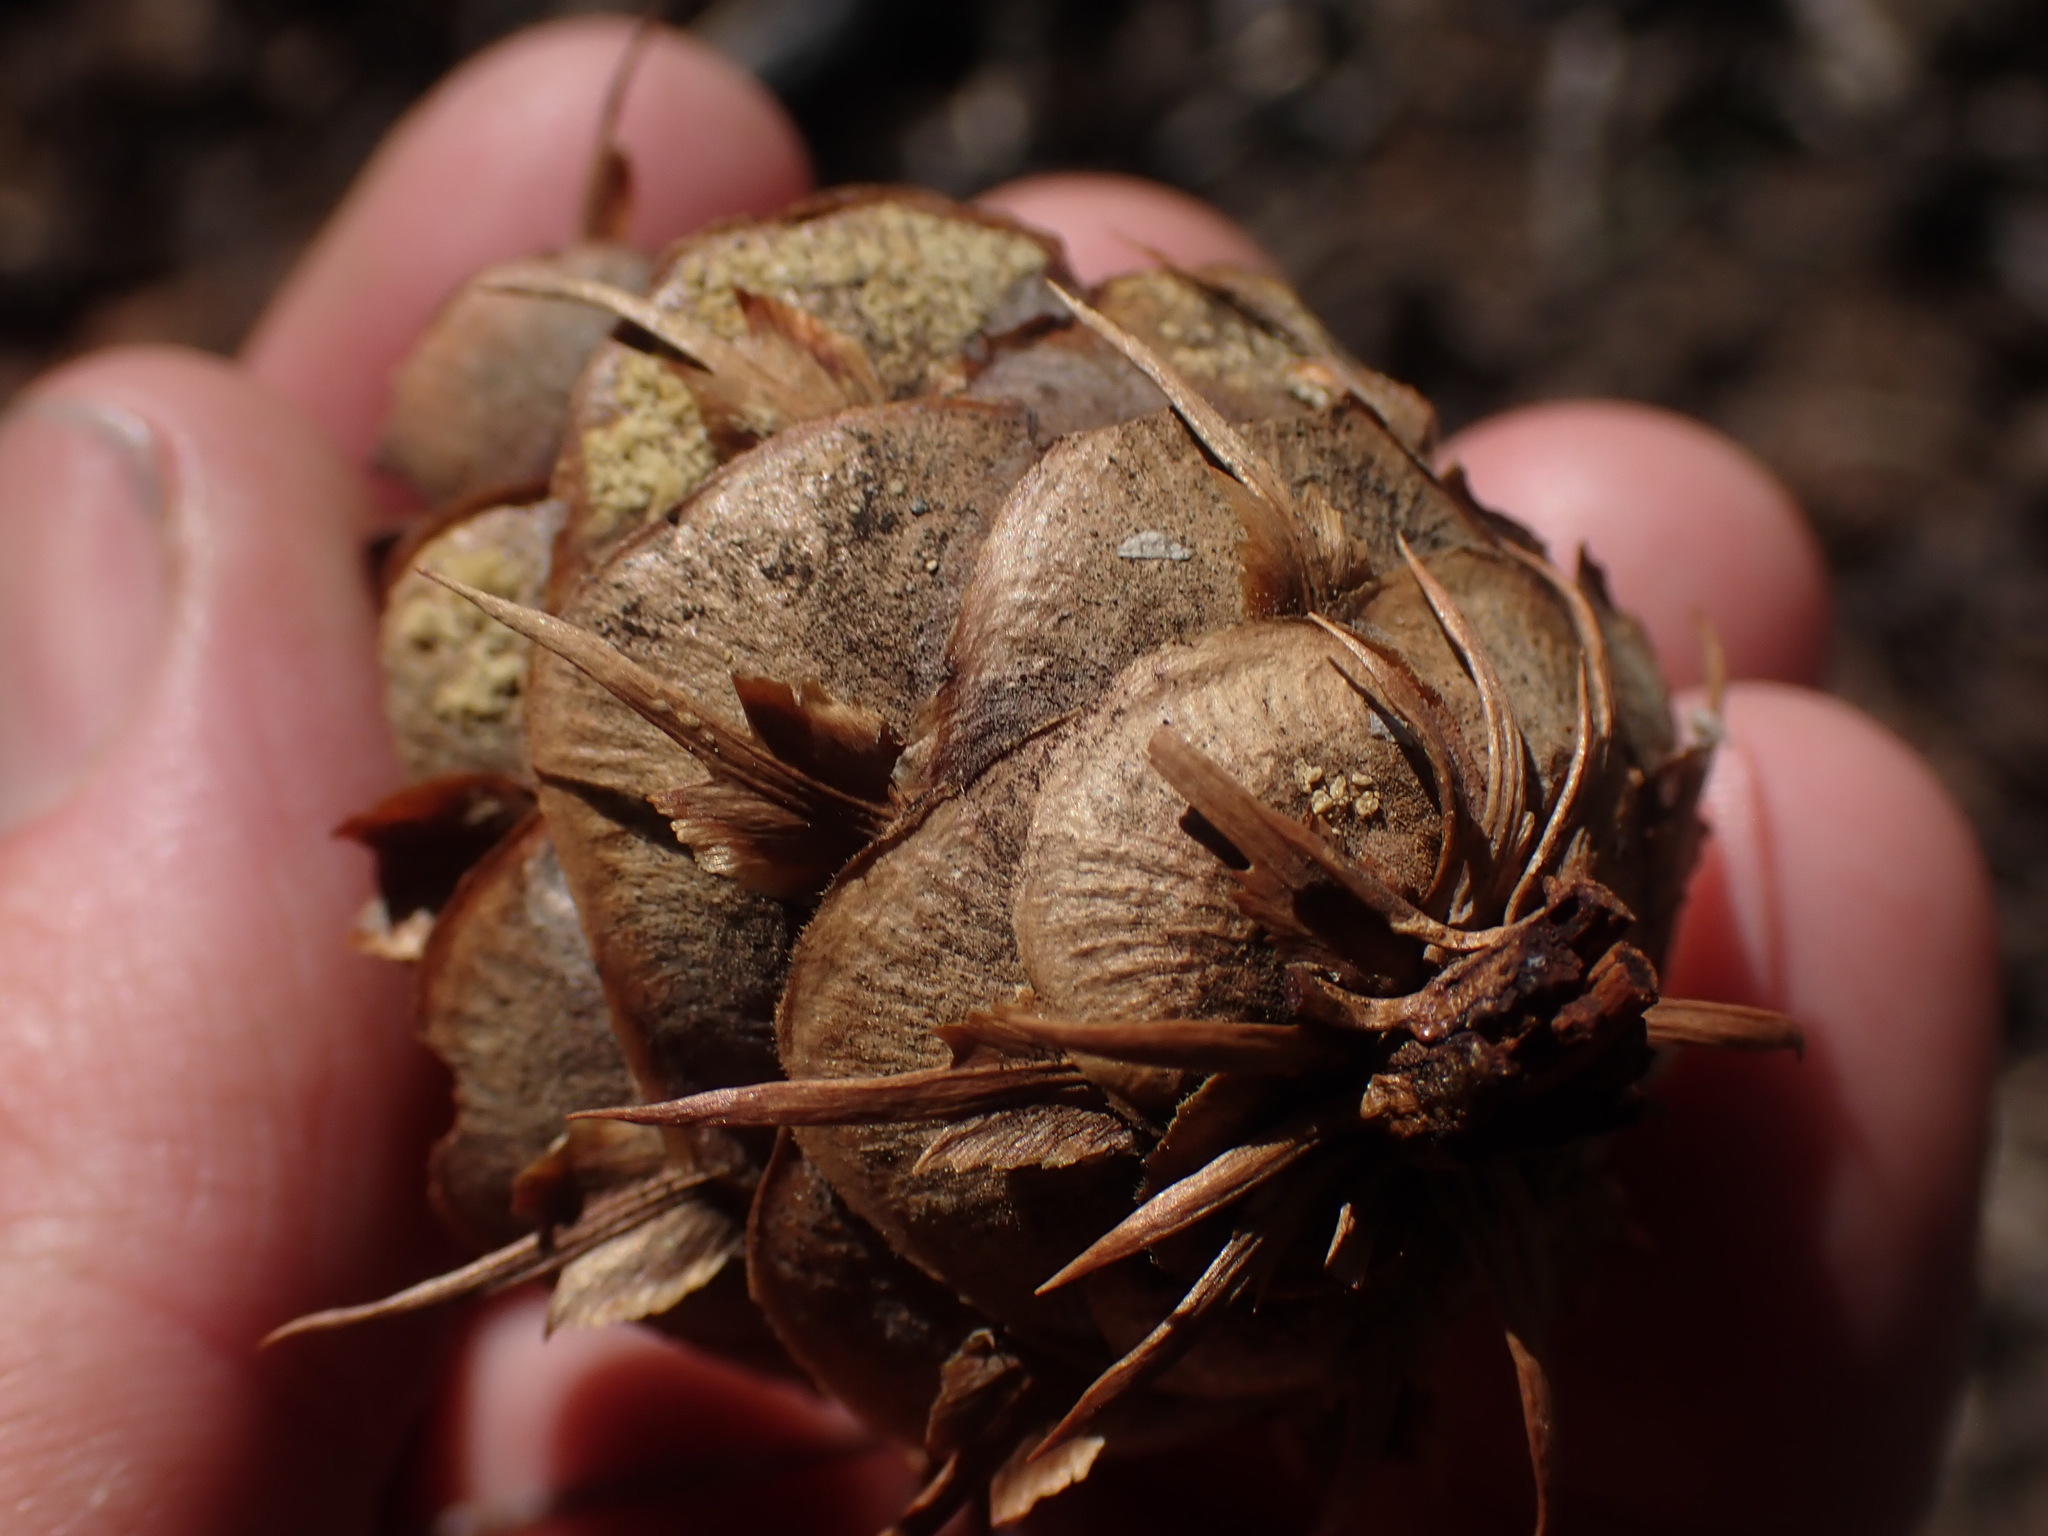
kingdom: Plantae
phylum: Tracheophyta
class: Pinopsida
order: Pinales
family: Pinaceae
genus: Pseudotsuga
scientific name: Pseudotsuga menziesii
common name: Douglas fir
